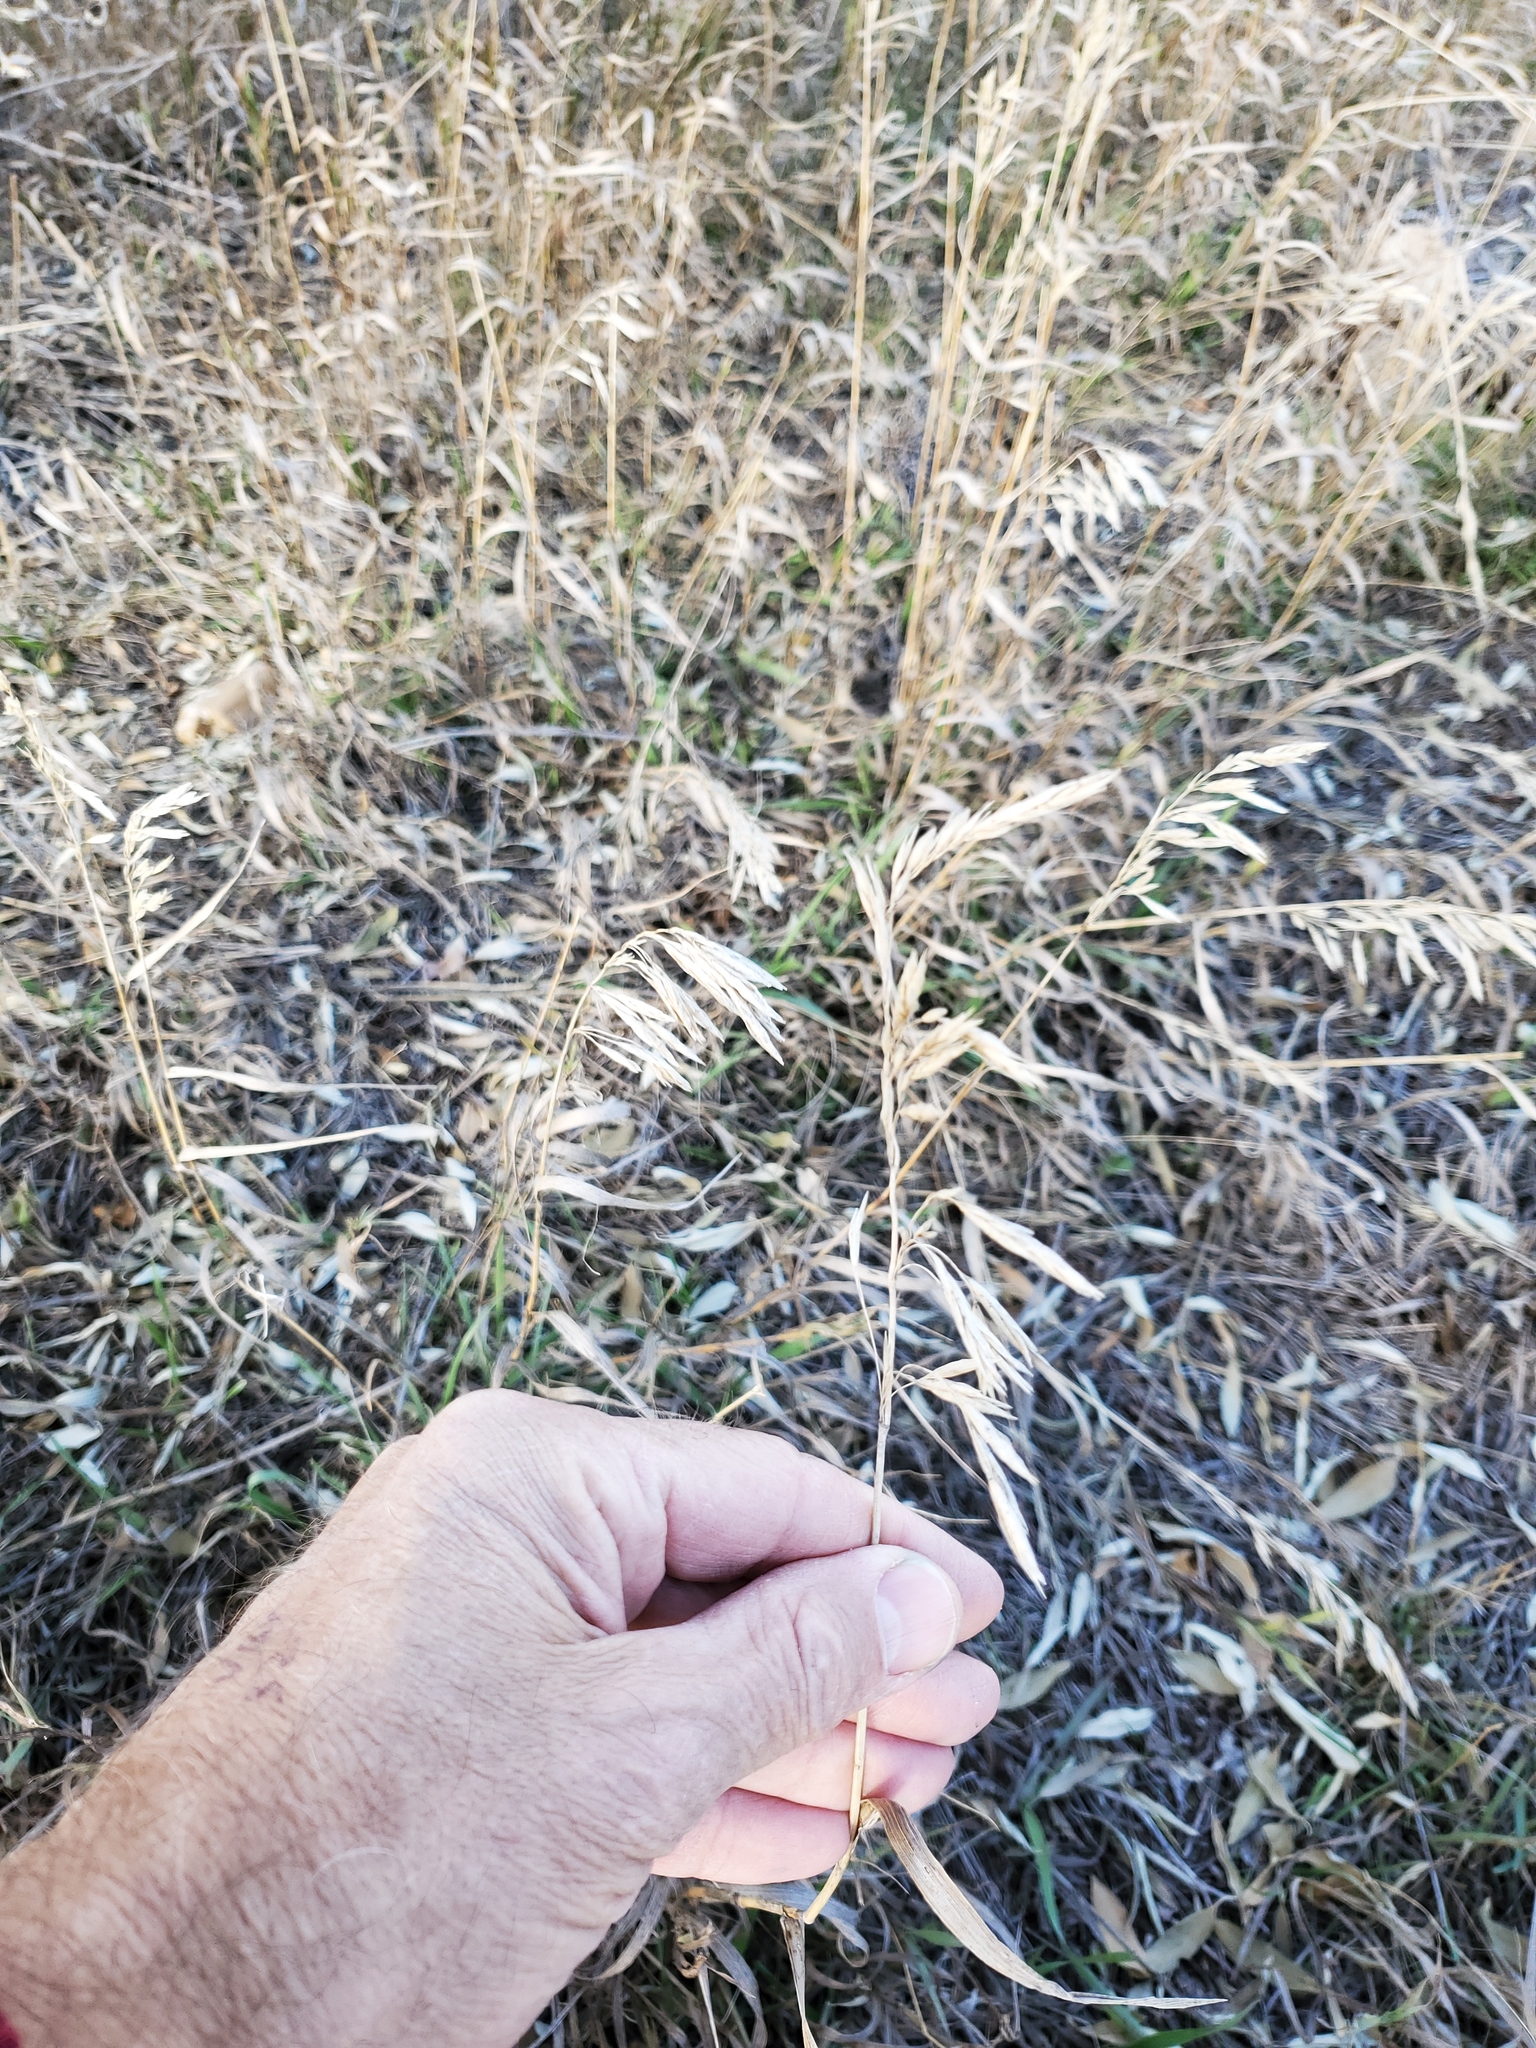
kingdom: Plantae
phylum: Tracheophyta
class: Liliopsida
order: Poales
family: Poaceae
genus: Bromus
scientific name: Bromus inermis
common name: Smooth brome
